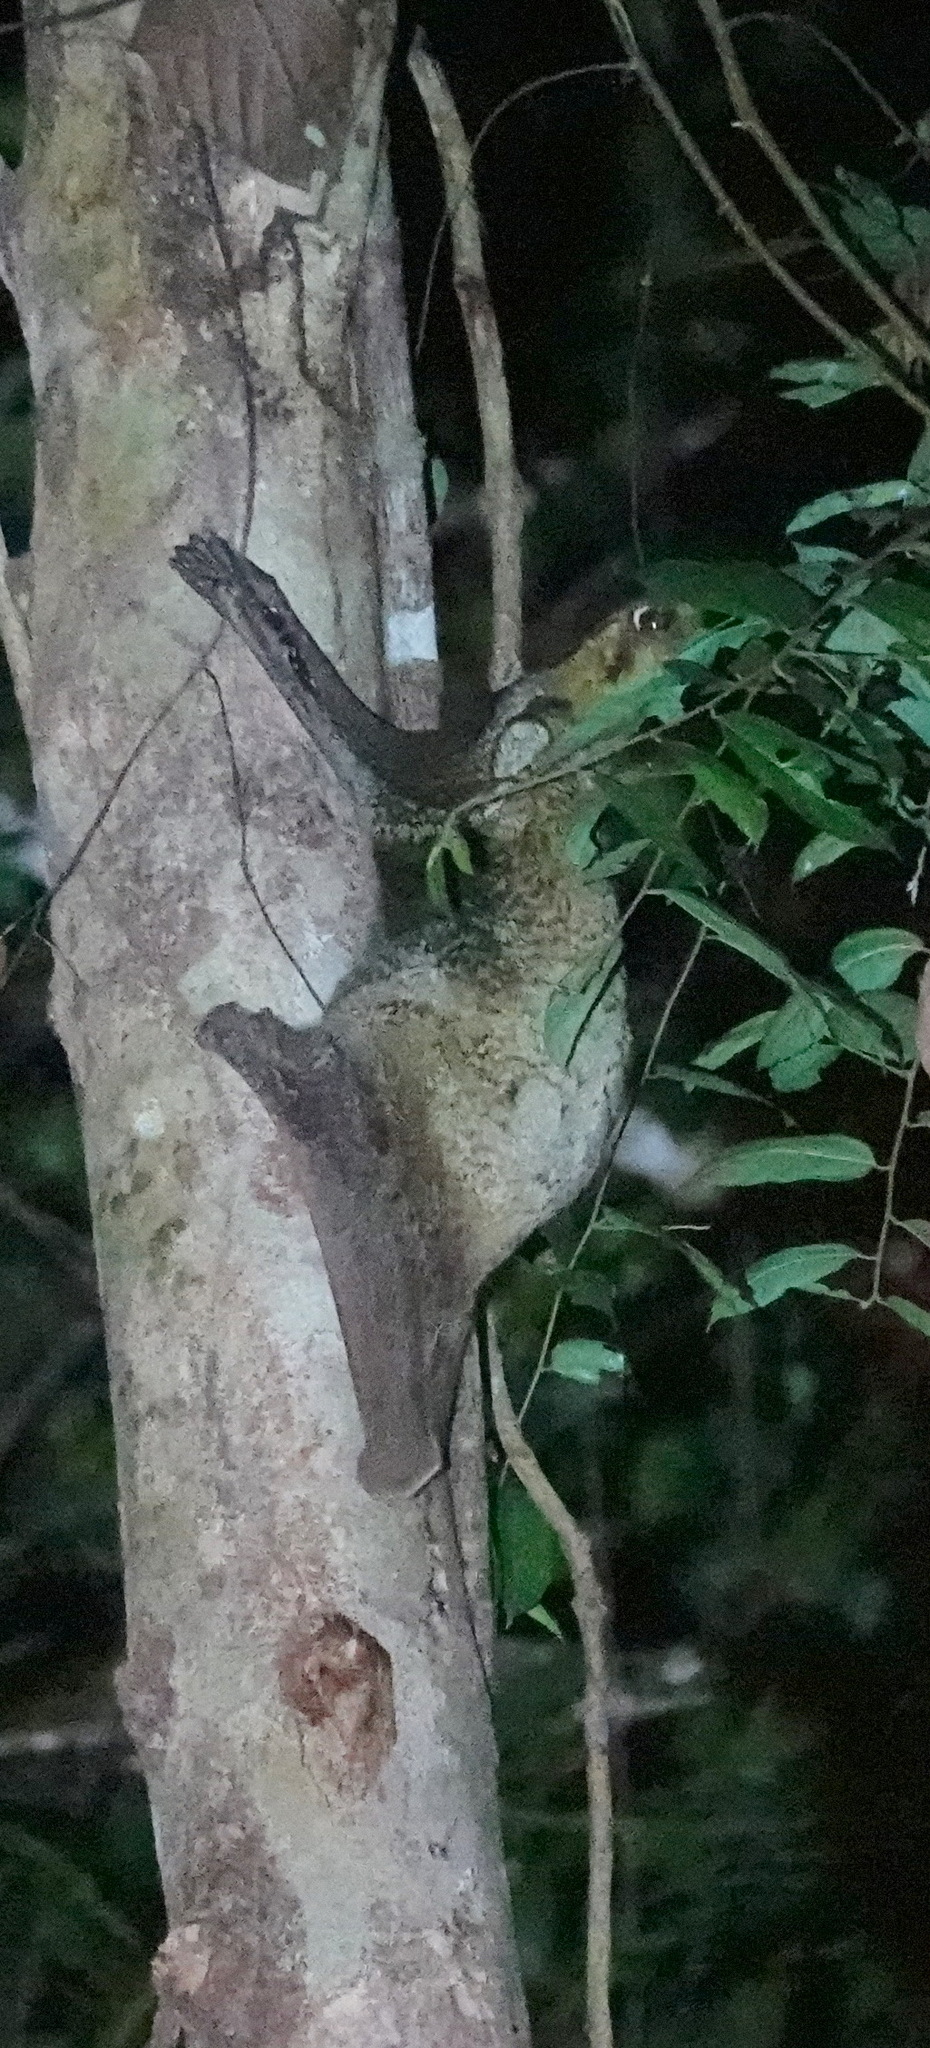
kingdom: Animalia
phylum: Chordata
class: Mammalia
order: Dermoptera
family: Cynocephalidae
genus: Galeopterus
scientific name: Galeopterus variegatus
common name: Sunda flying lemur
